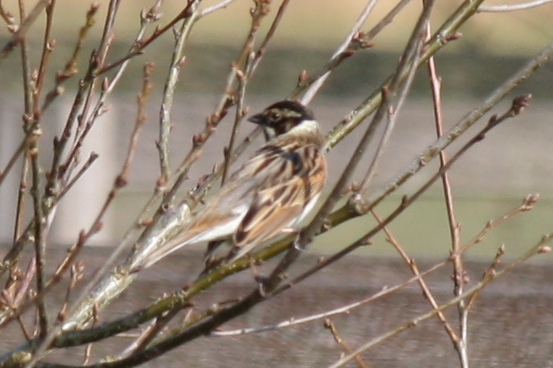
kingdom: Animalia
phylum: Chordata
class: Aves
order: Passeriformes
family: Emberizidae
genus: Emberiza
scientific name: Emberiza schoeniclus
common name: Reed bunting
